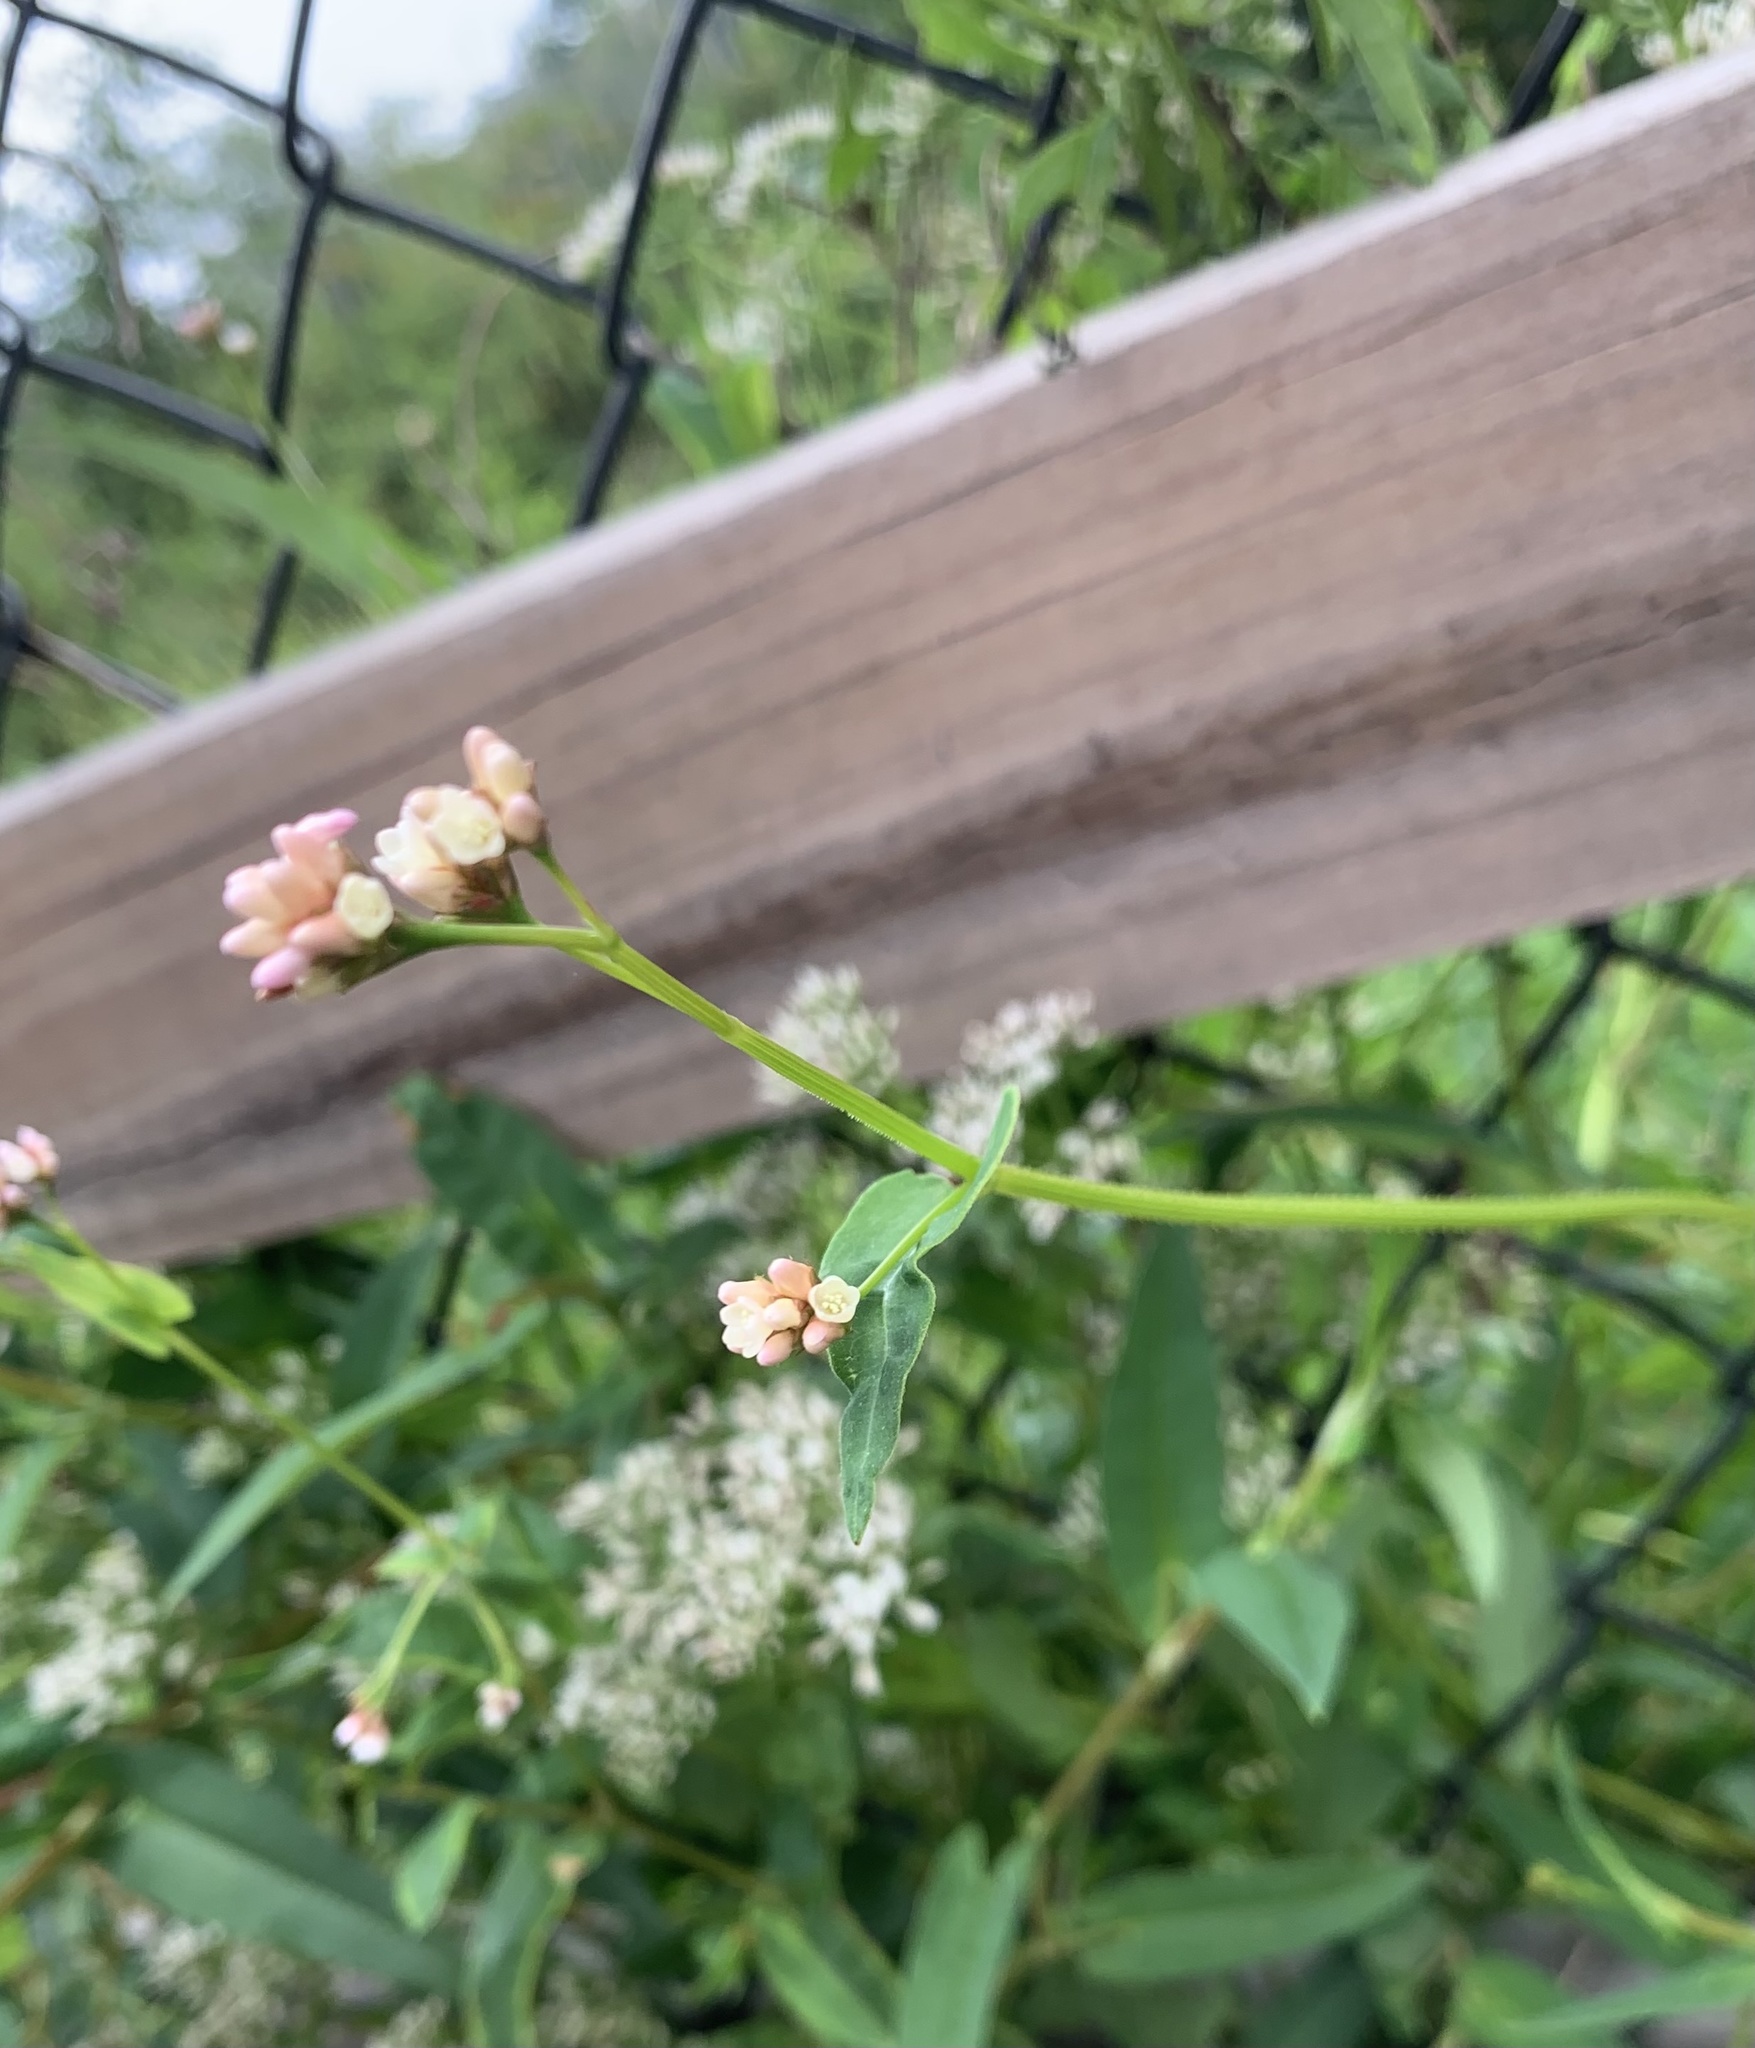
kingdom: Plantae
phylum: Tracheophyta
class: Magnoliopsida
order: Caryophyllales
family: Polygonaceae
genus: Persicaria
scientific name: Persicaria sagittata
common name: American tearthumb
